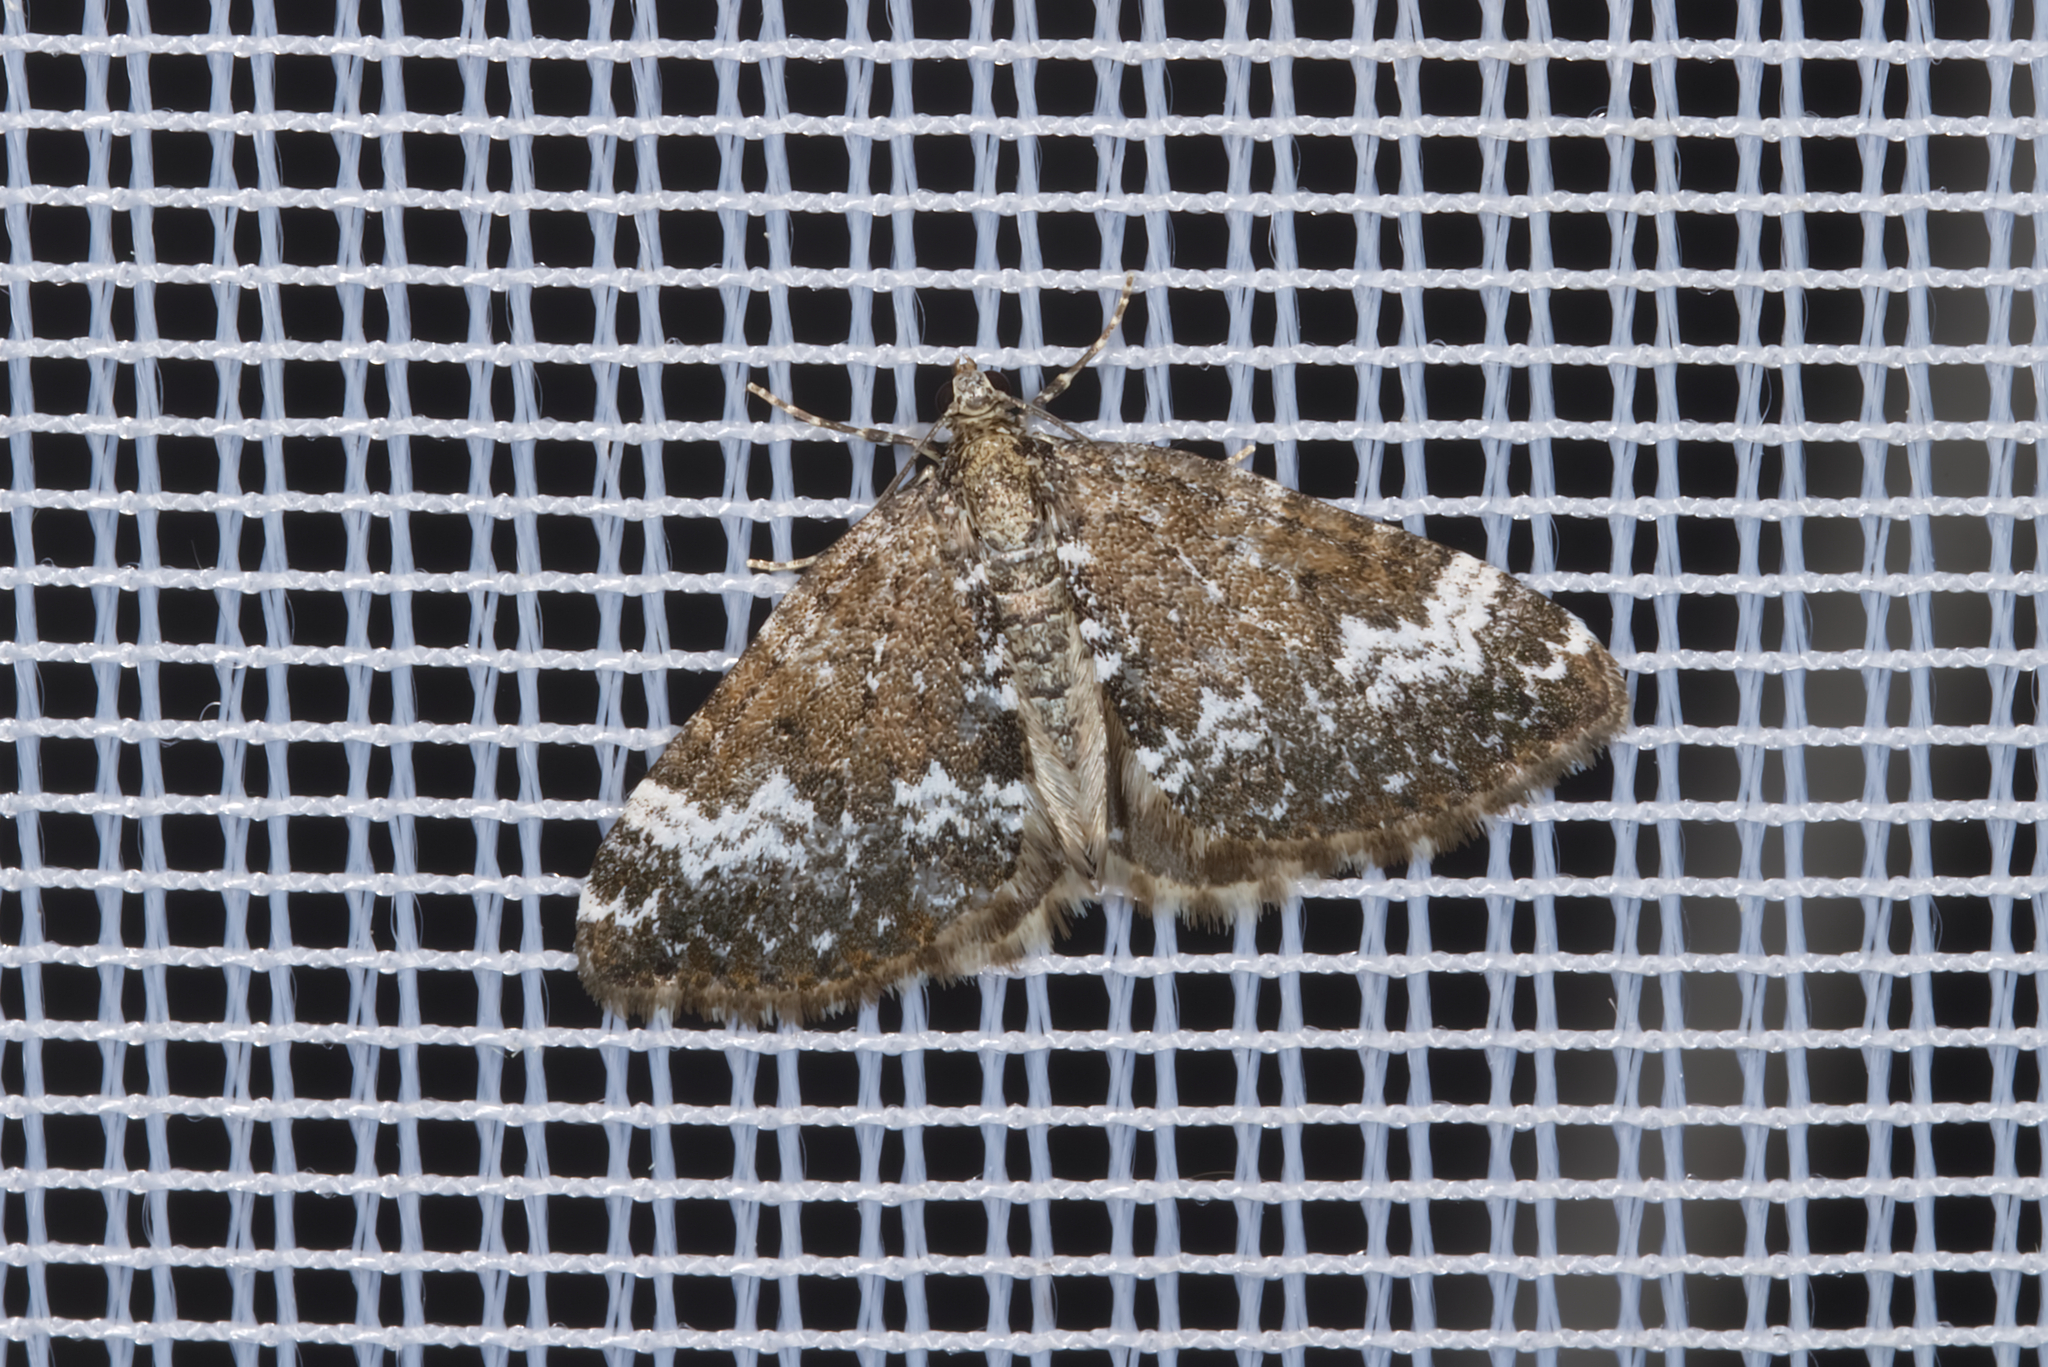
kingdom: Animalia
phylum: Arthropoda
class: Insecta
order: Lepidoptera
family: Geometridae
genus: Perizoma
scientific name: Perizoma alchemillata
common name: Small rivulet
